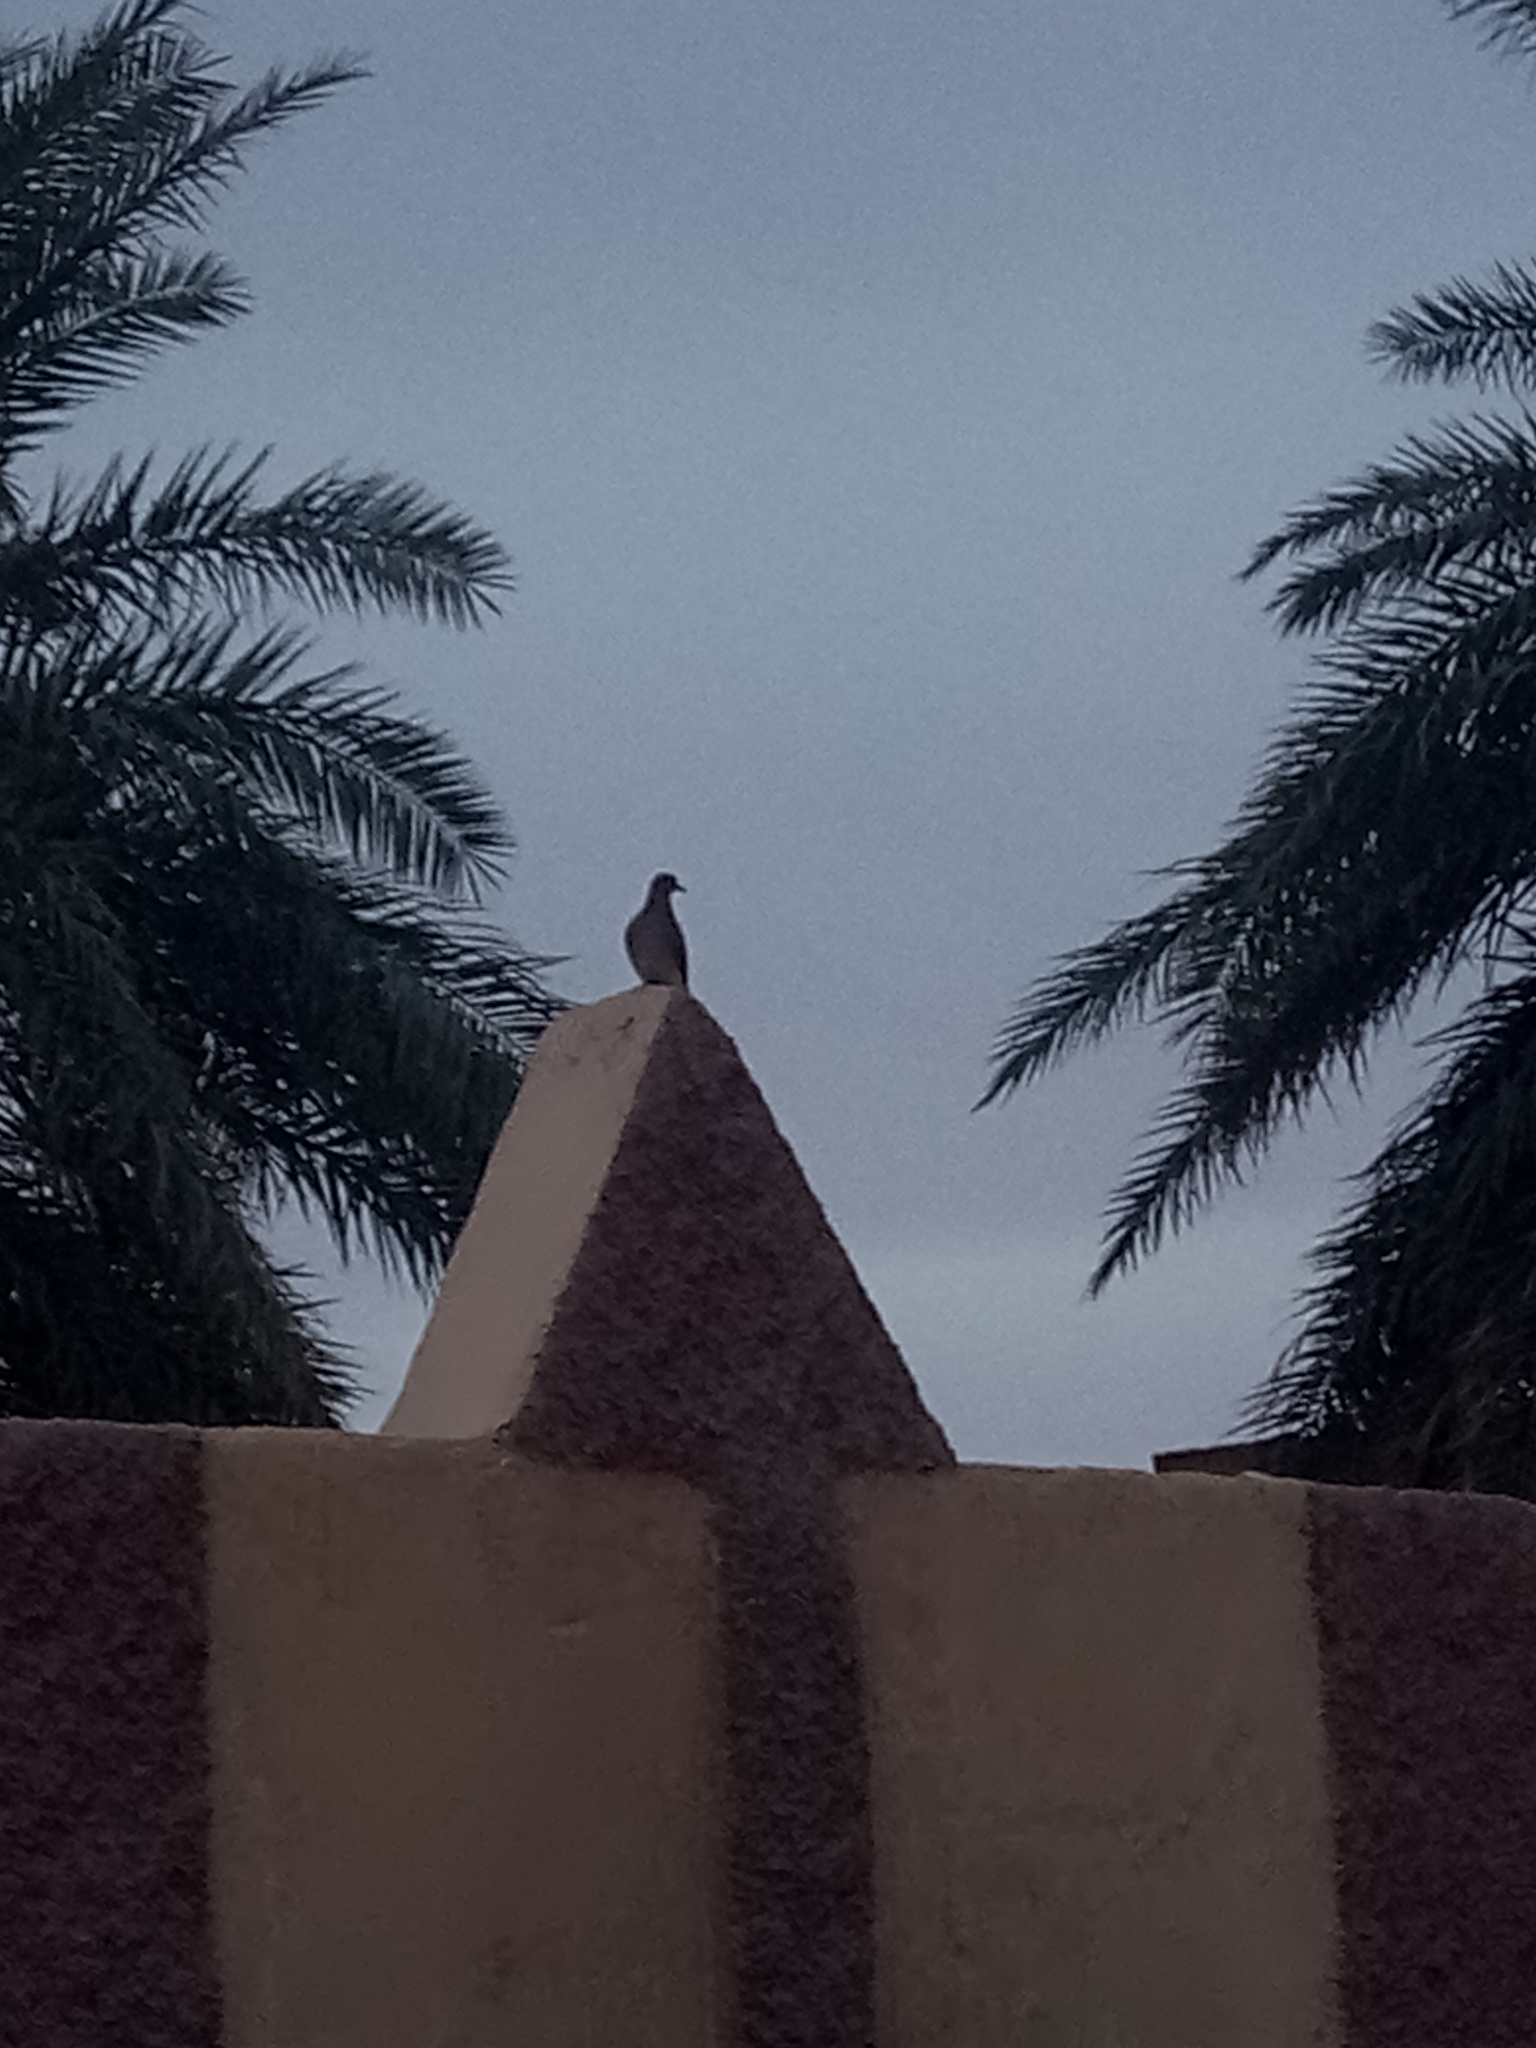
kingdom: Animalia
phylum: Chordata
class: Aves
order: Columbiformes
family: Columbidae
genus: Columba
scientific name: Columba livia
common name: Rock pigeon
